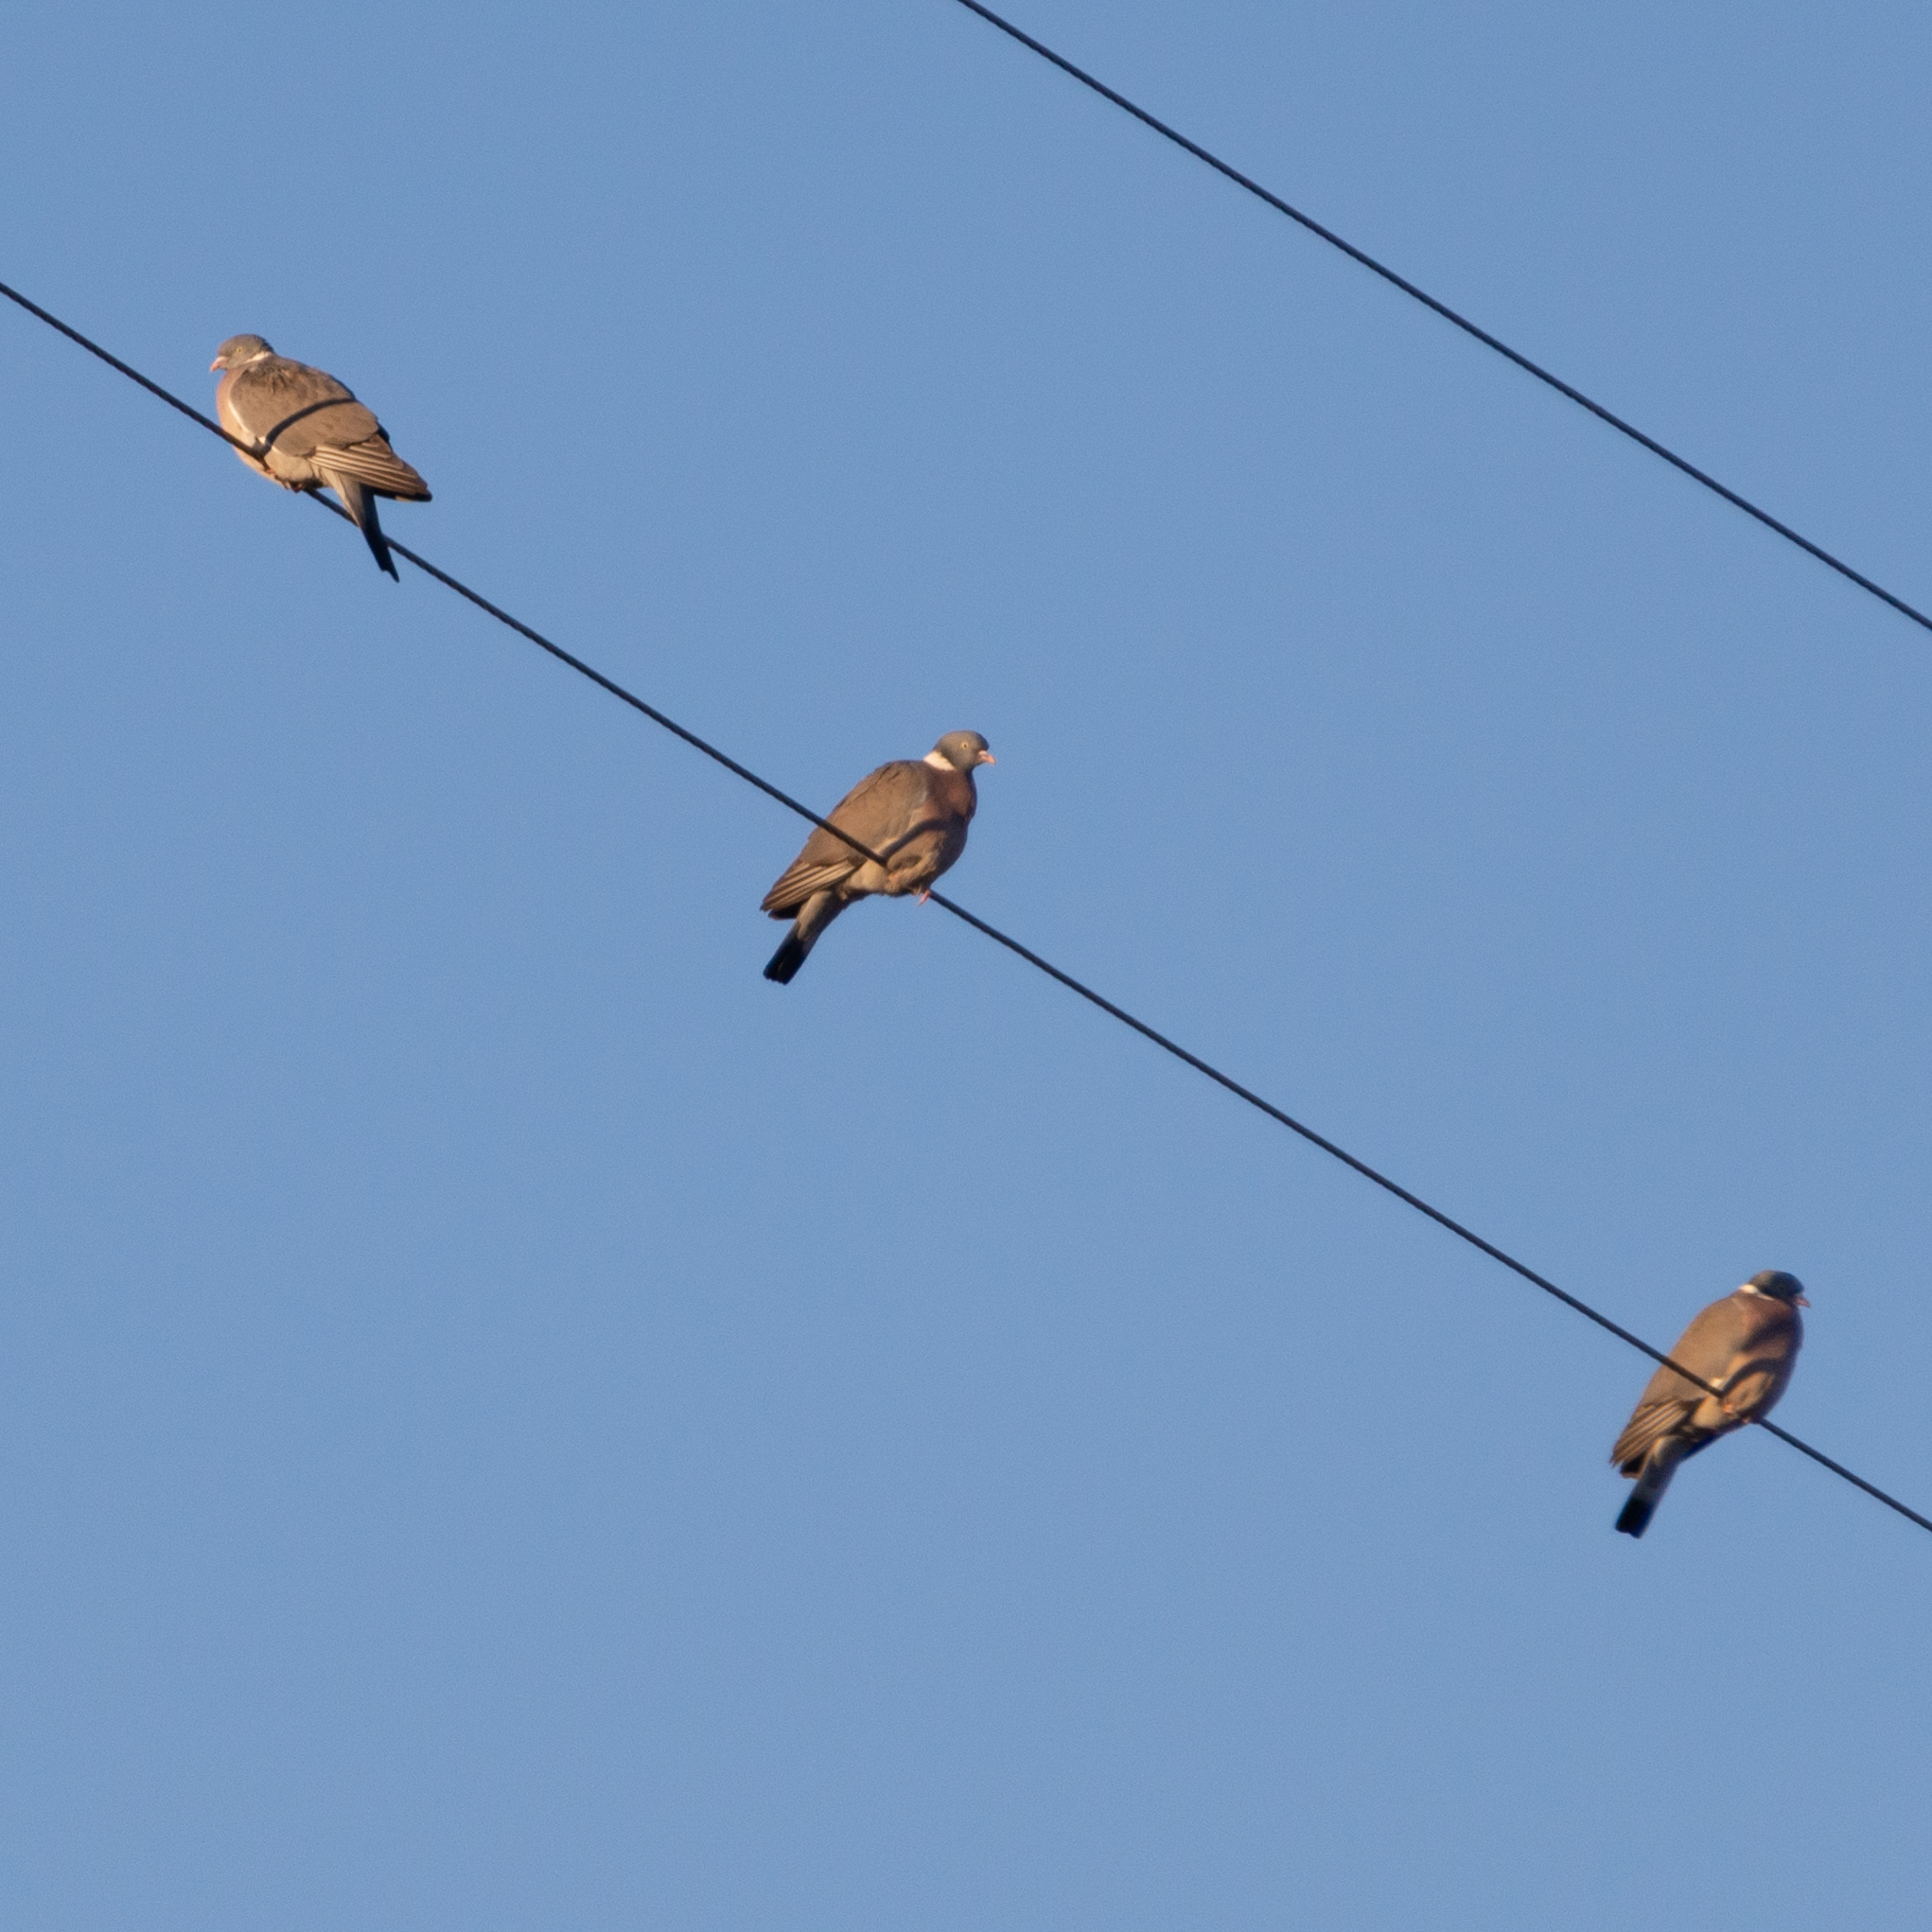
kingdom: Animalia
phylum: Chordata
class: Aves
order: Columbiformes
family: Columbidae
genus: Columba
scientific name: Columba palumbus
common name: Common wood pigeon
